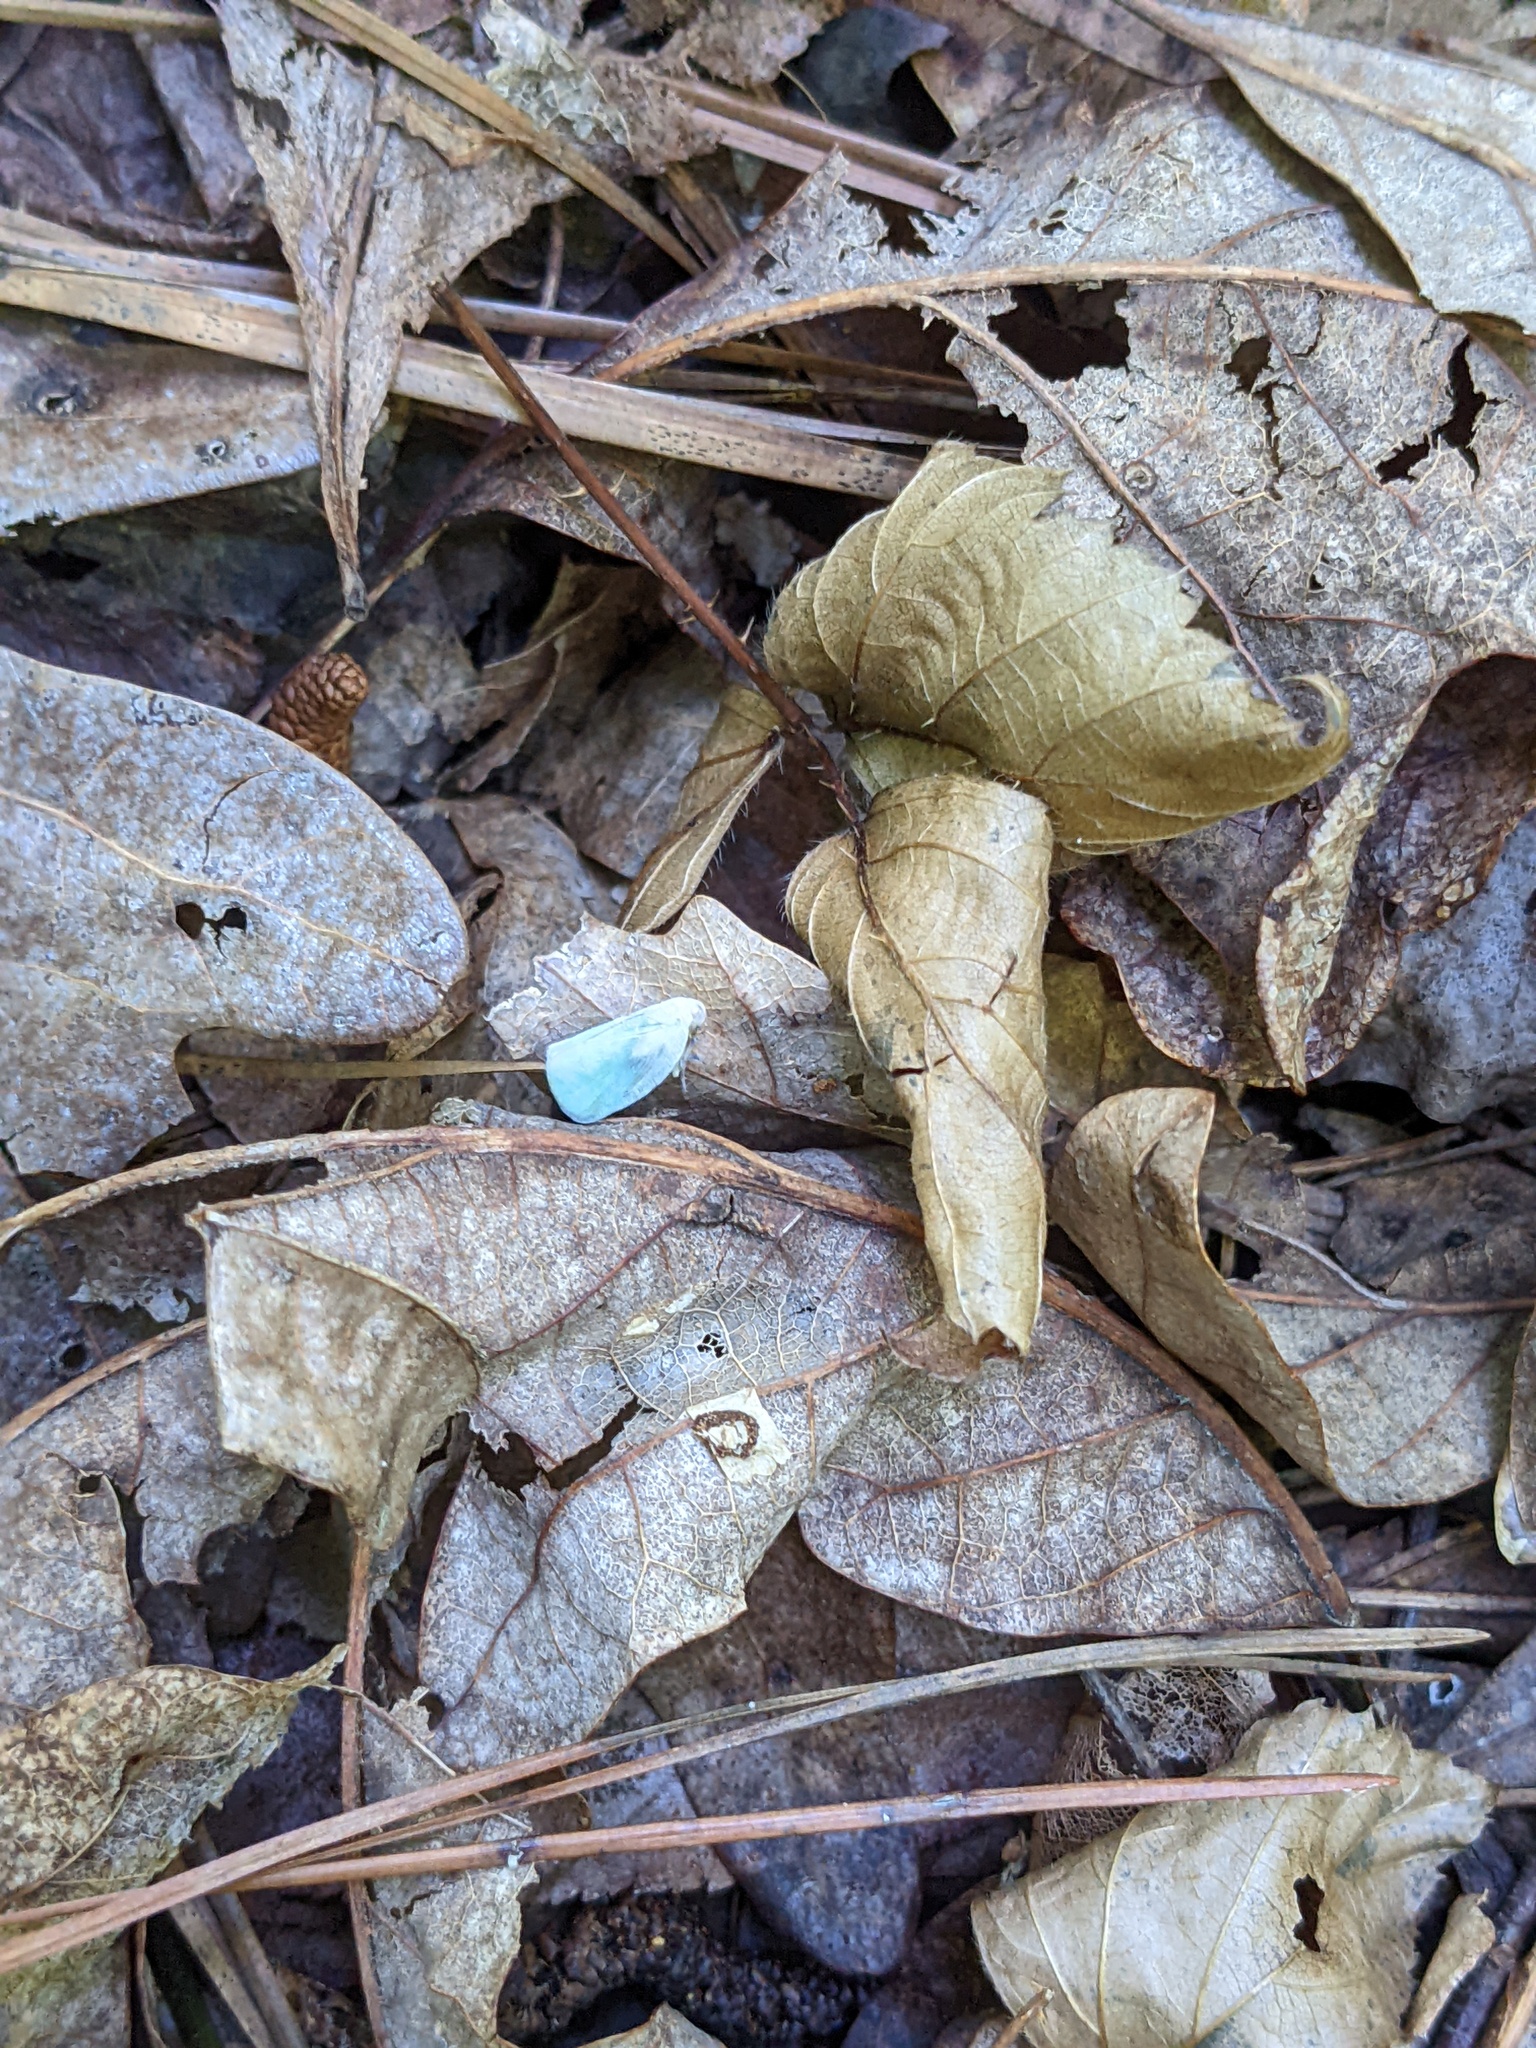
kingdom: Animalia
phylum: Arthropoda
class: Insecta
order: Hemiptera
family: Flatidae
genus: Flatormenis
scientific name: Flatormenis proxima
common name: Northern flatid planthopper
